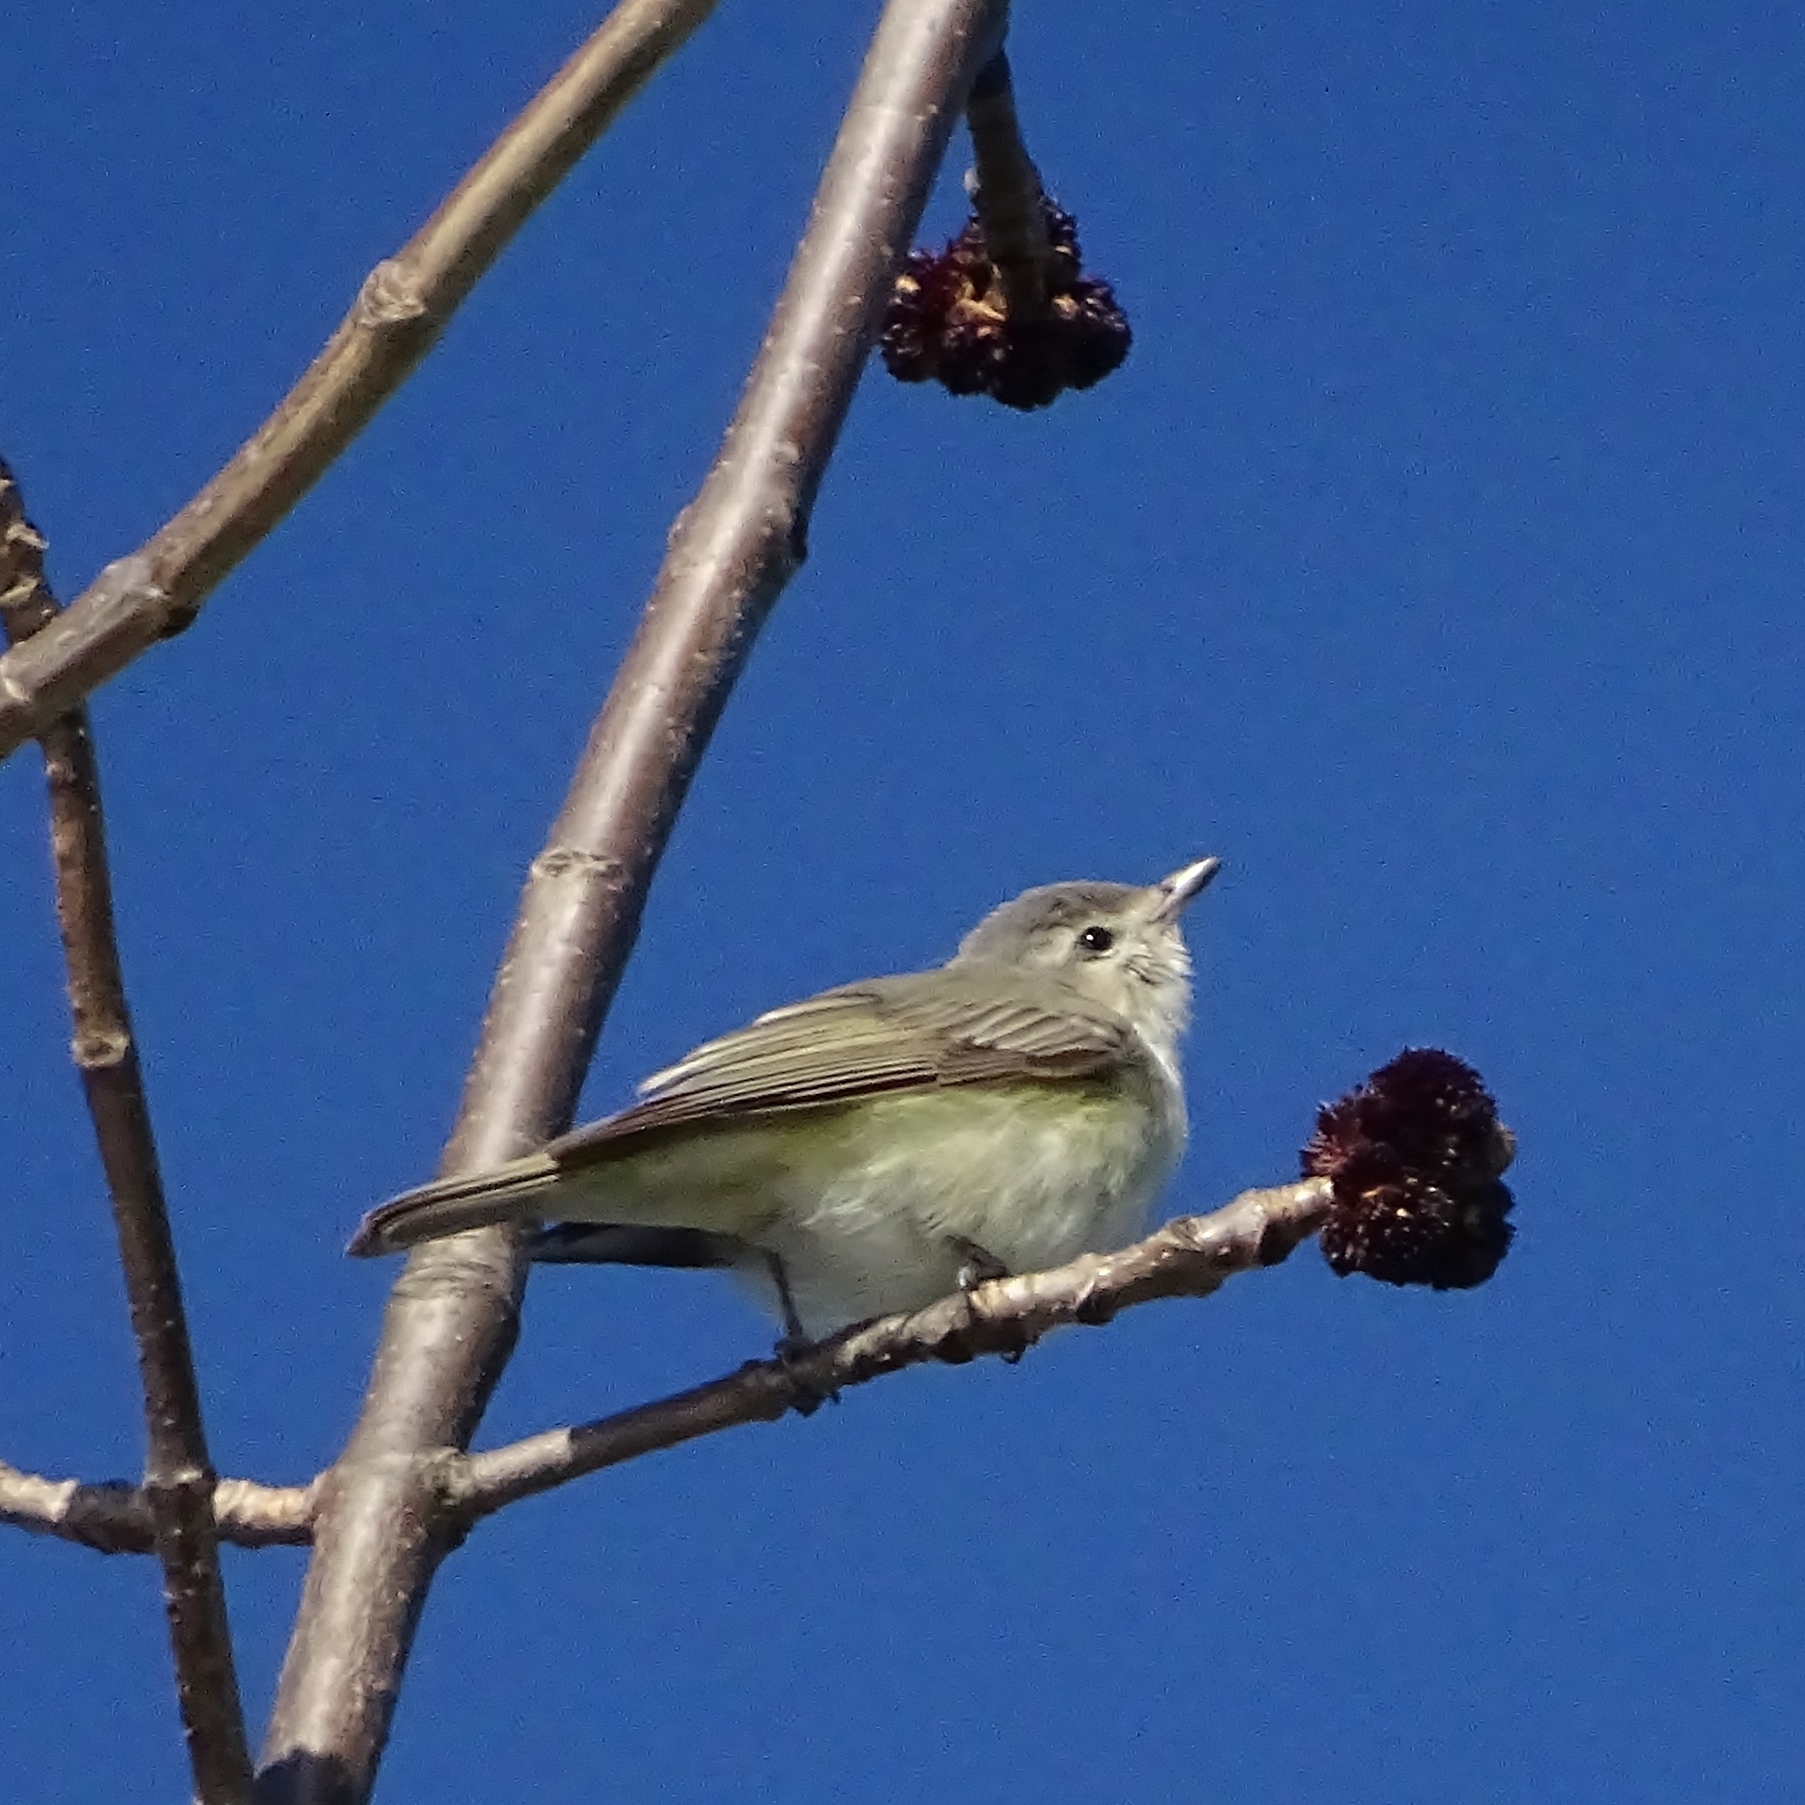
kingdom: Animalia
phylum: Chordata
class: Aves
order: Passeriformes
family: Vireonidae
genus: Vireo
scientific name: Vireo gilvus
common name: Warbling vireo
